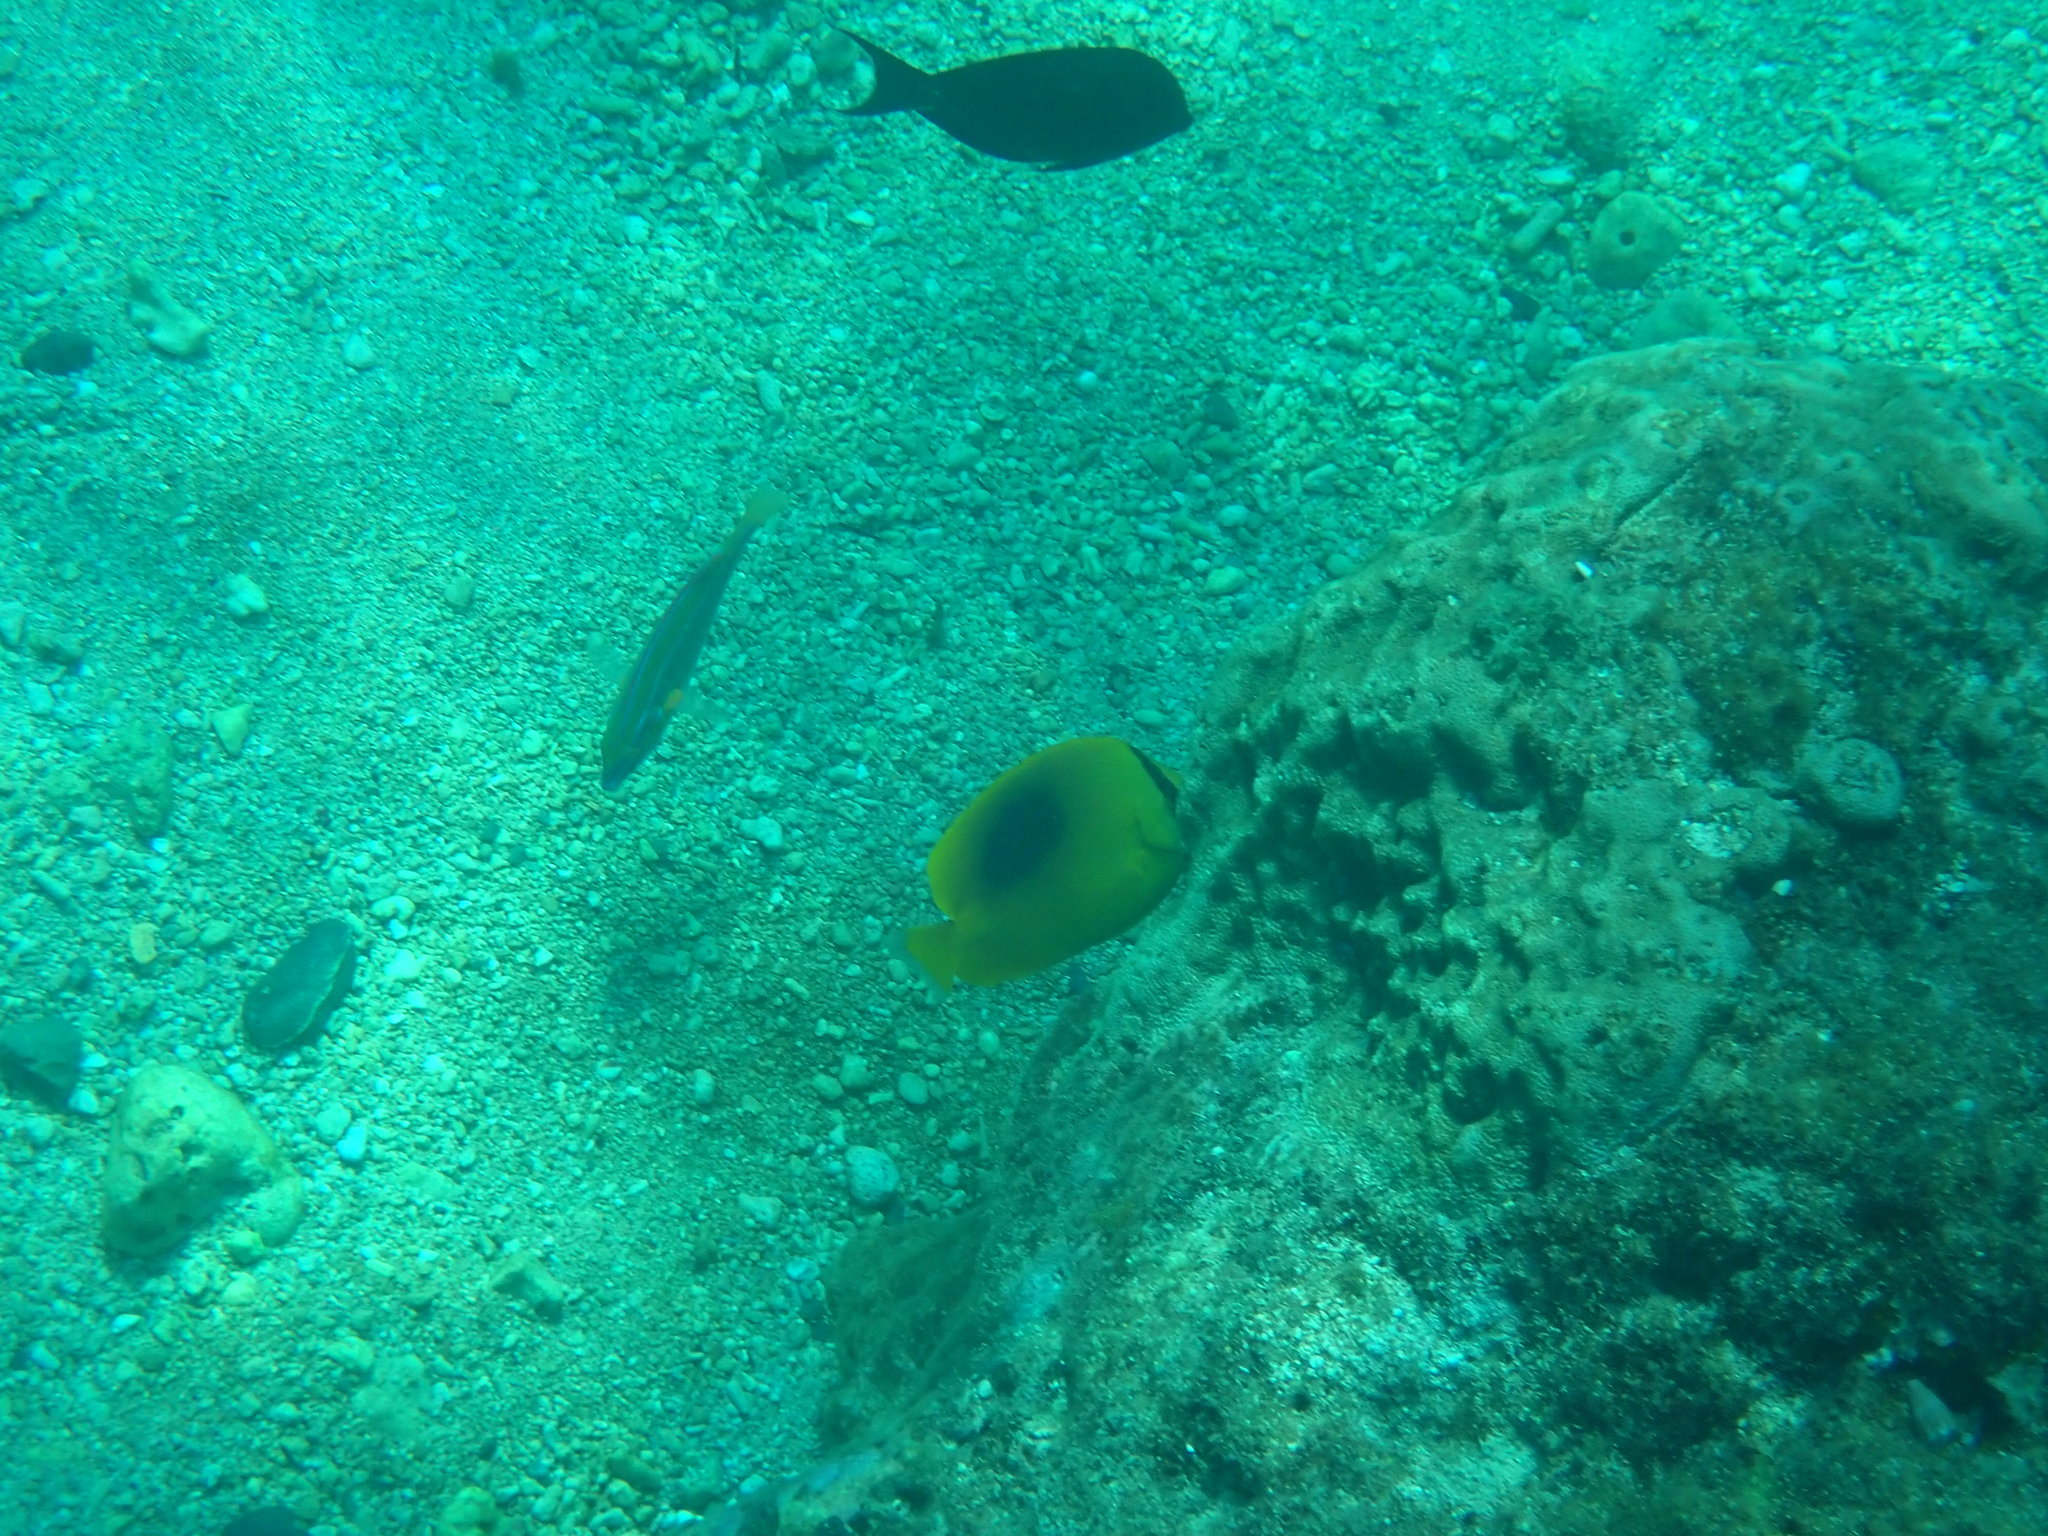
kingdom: Animalia
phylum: Chordata
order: Perciformes
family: Chaetodontidae
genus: Chaetodon
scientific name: Chaetodon speculum
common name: Mirror butterflyfish
